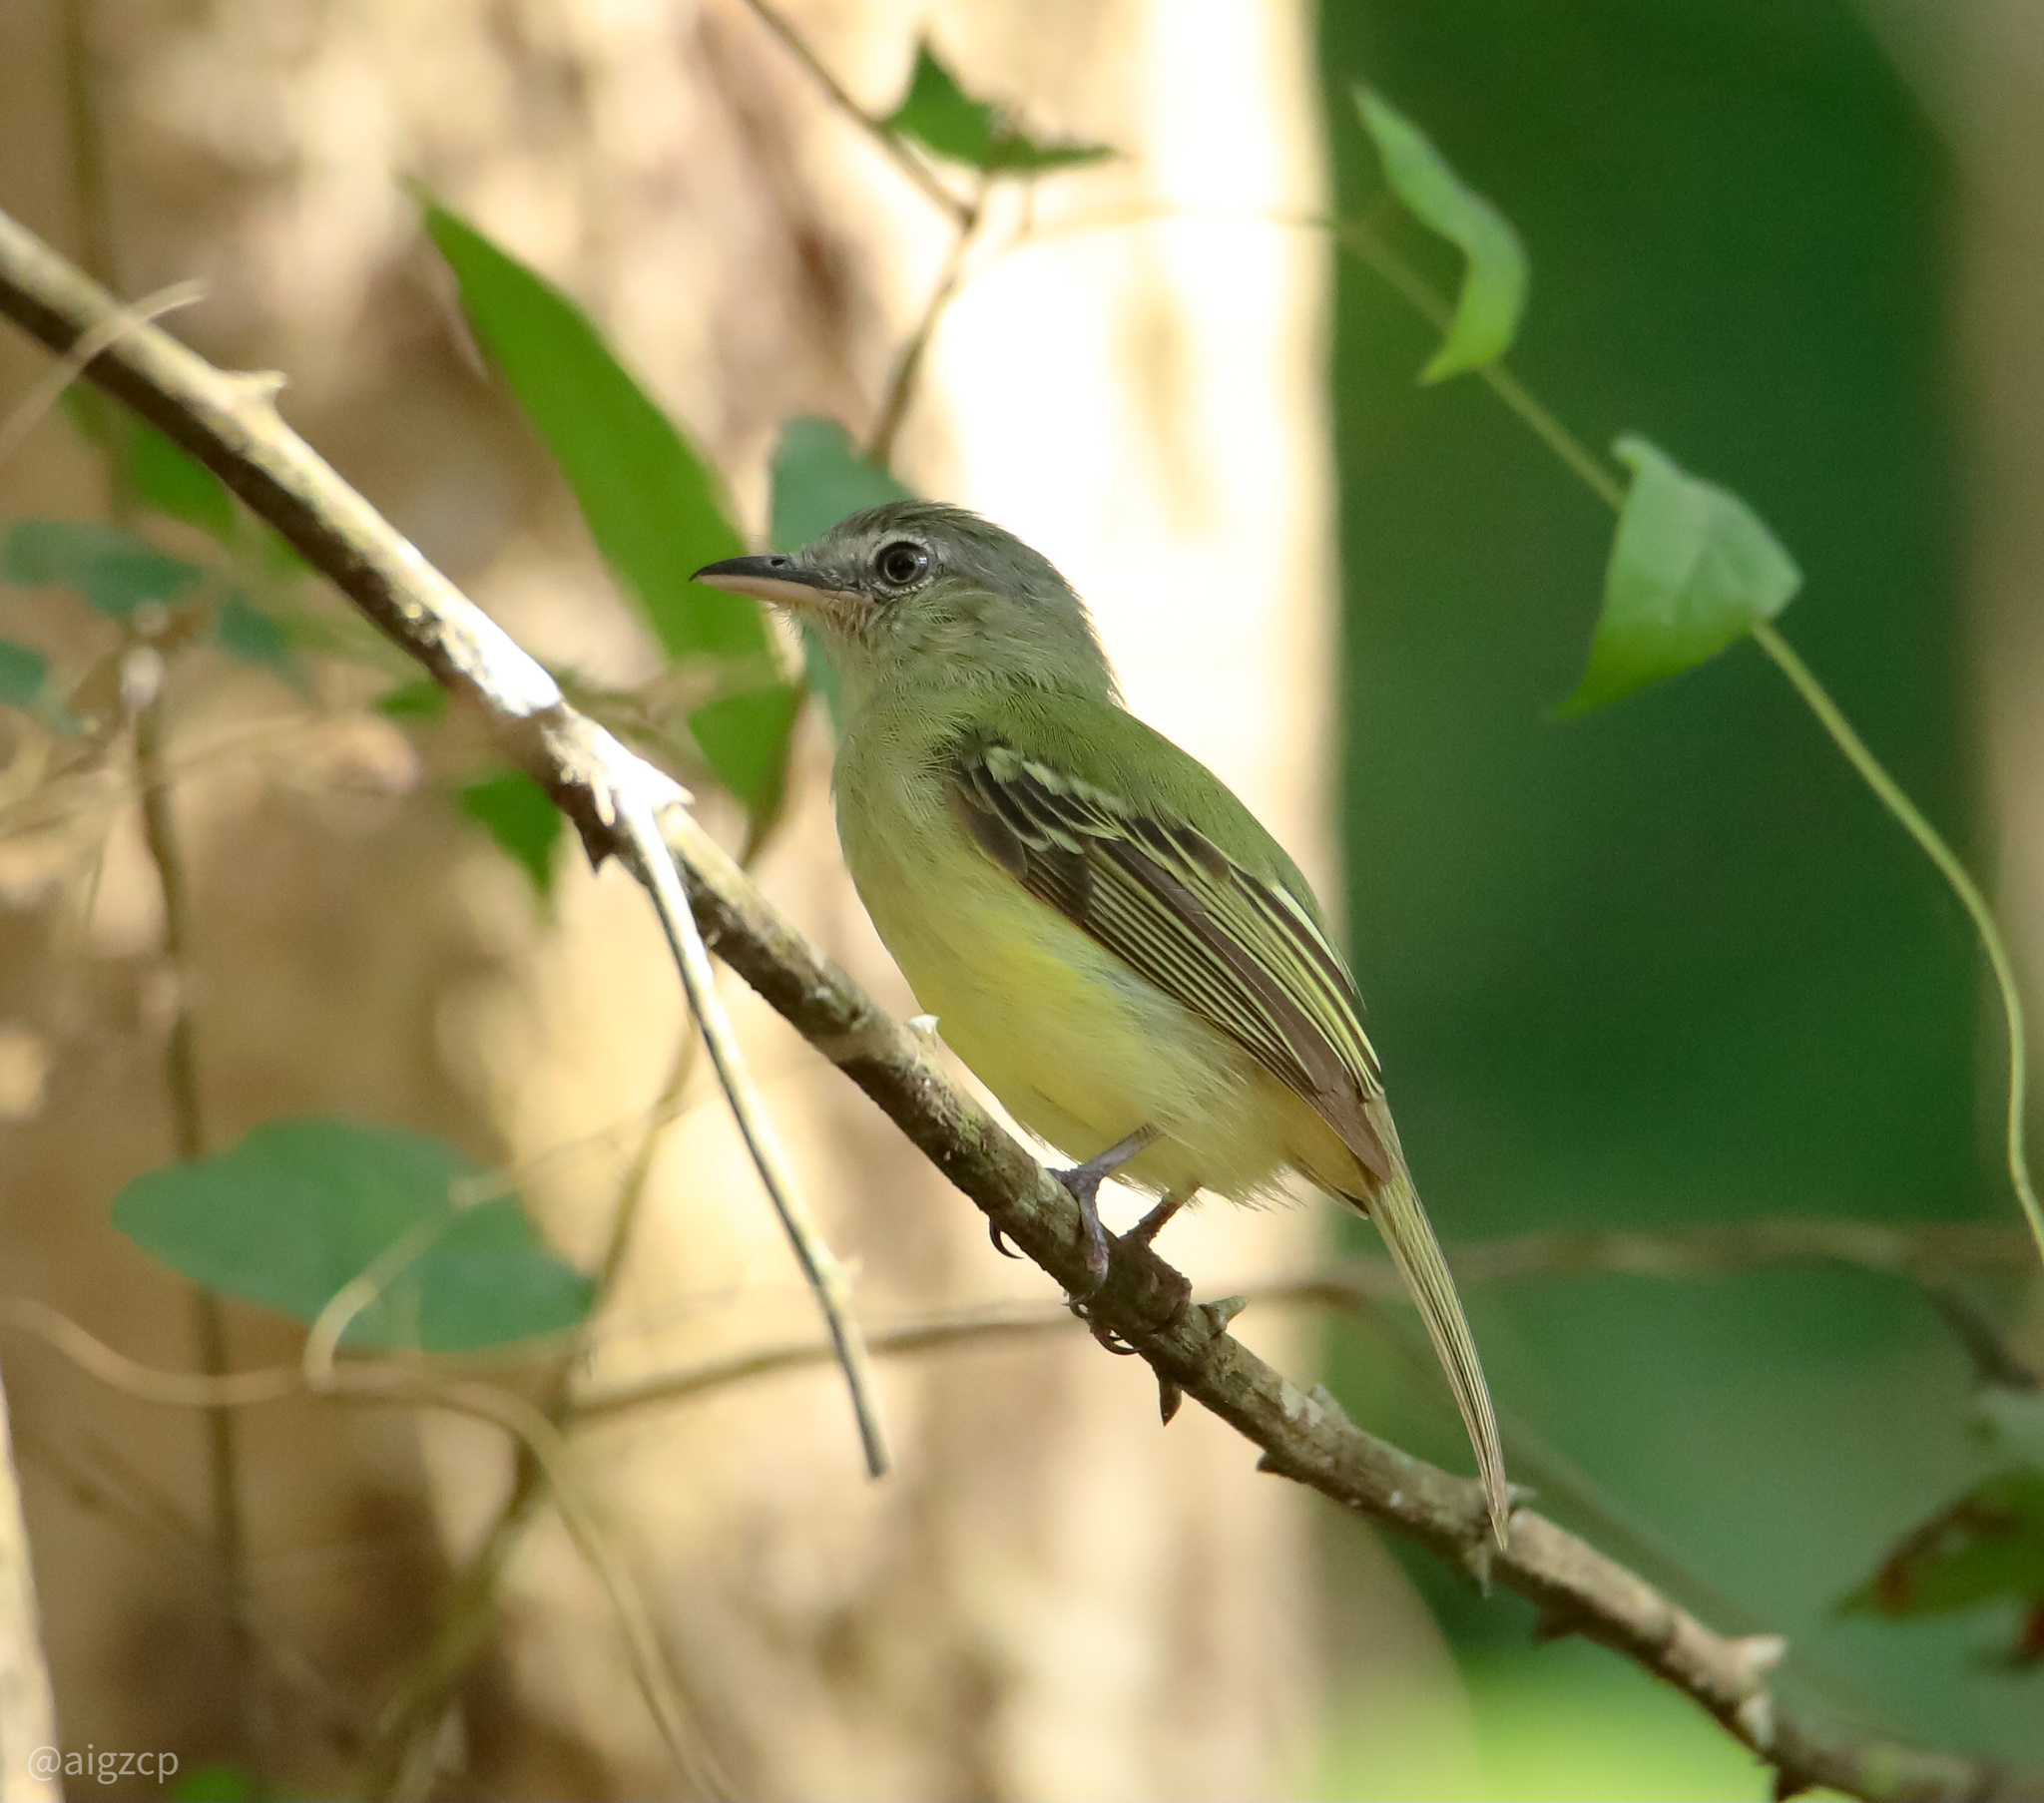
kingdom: Animalia
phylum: Chordata
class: Aves
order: Passeriformes
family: Tyrannidae
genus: Tolmomyias
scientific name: Tolmomyias sulphurescens
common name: Yellow-olive flycatcher
